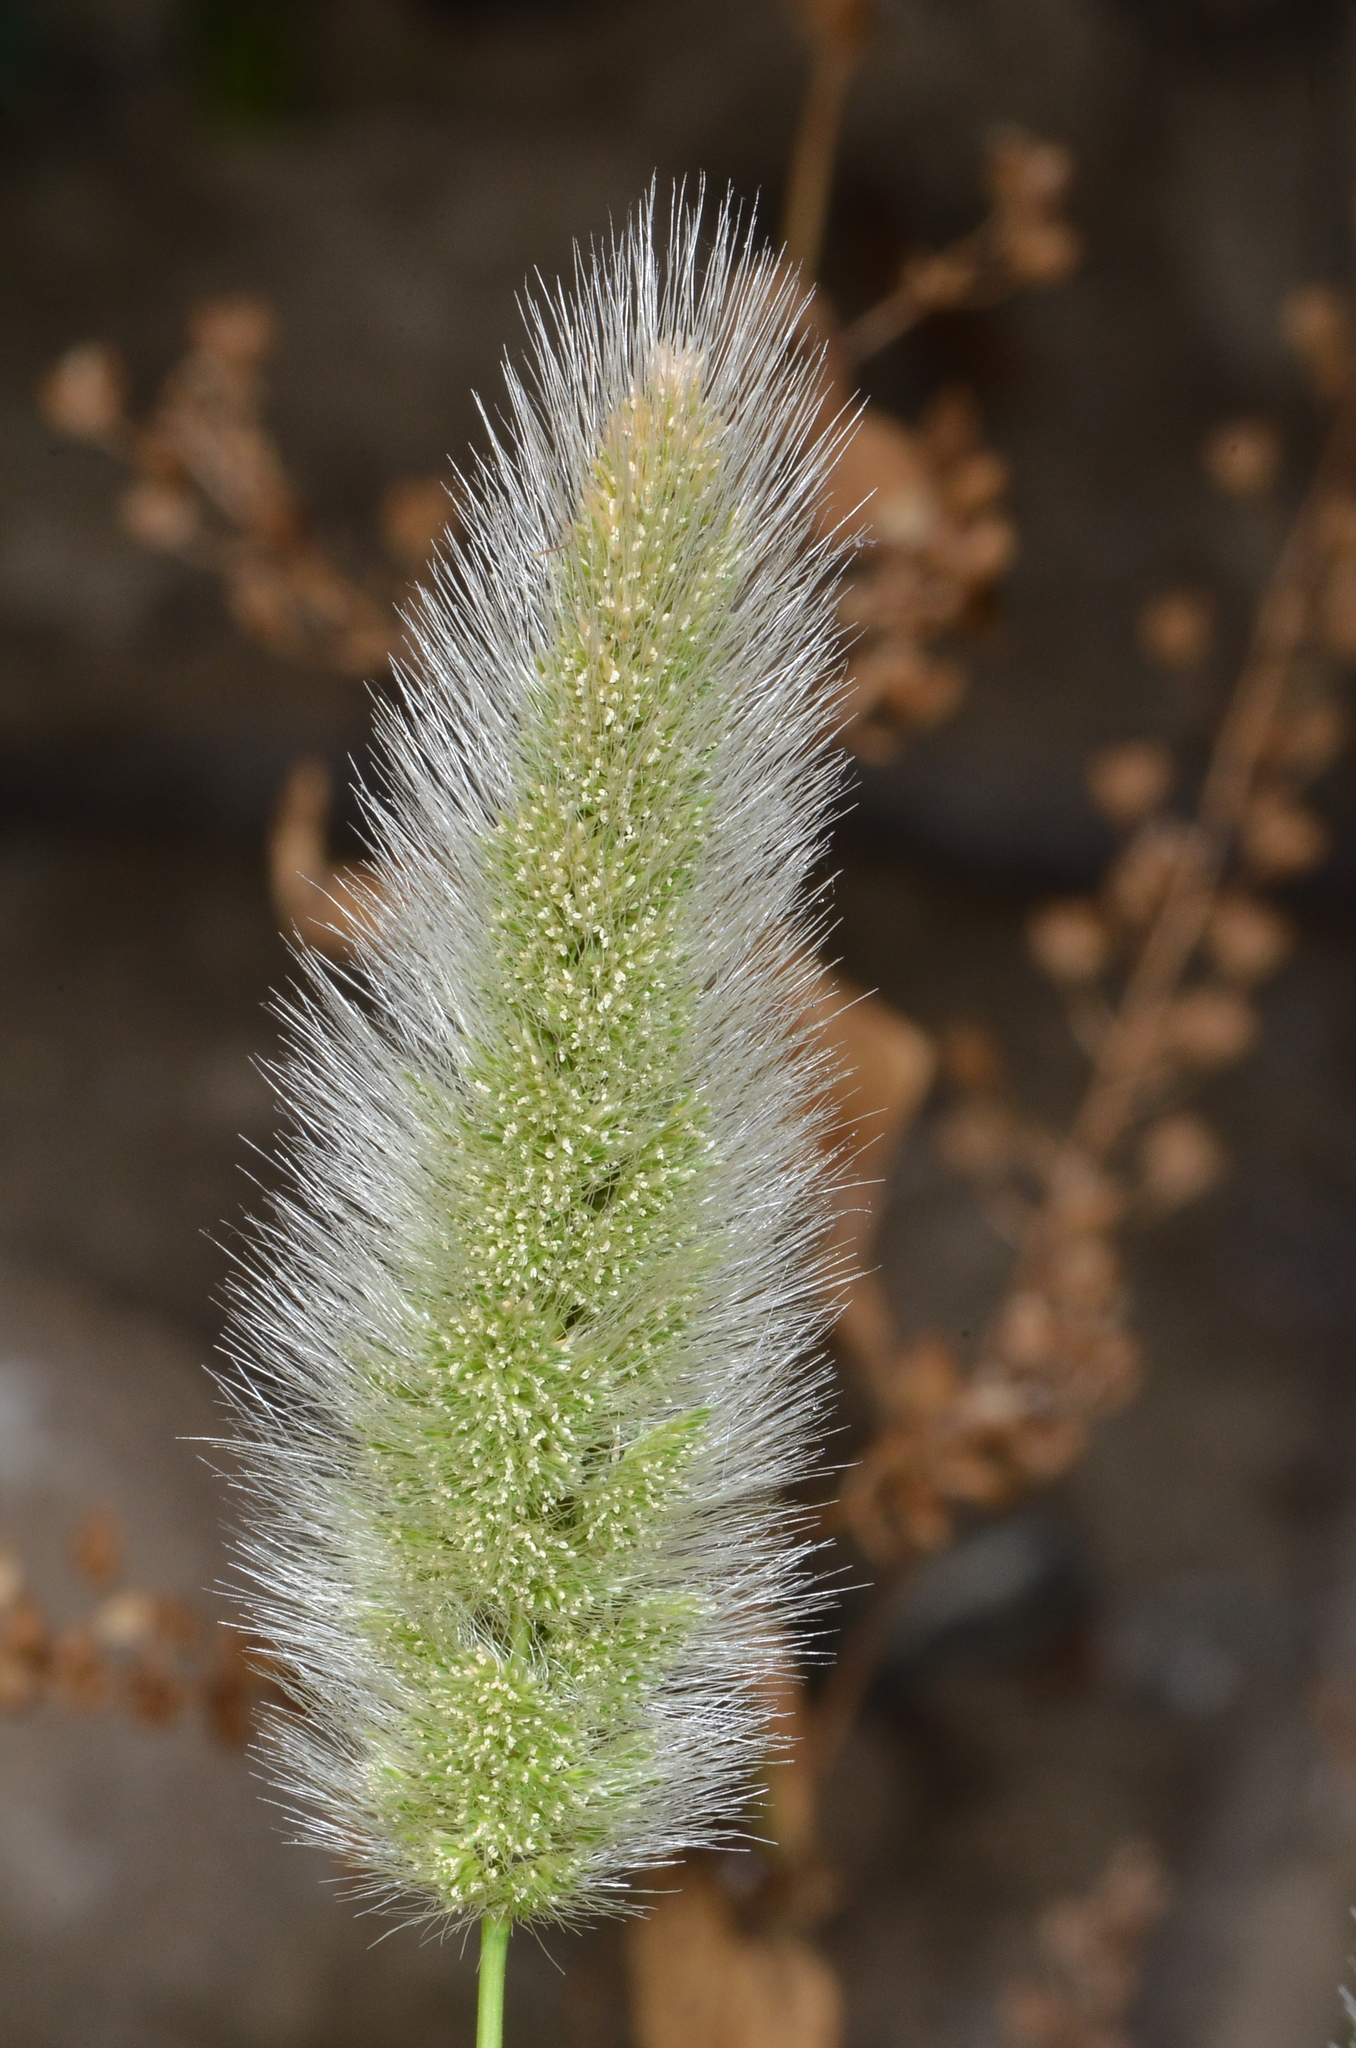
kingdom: Plantae
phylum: Tracheophyta
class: Liliopsida
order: Poales
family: Poaceae
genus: Polypogon
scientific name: Polypogon monspeliensis
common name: Annual rabbitsfoot grass
